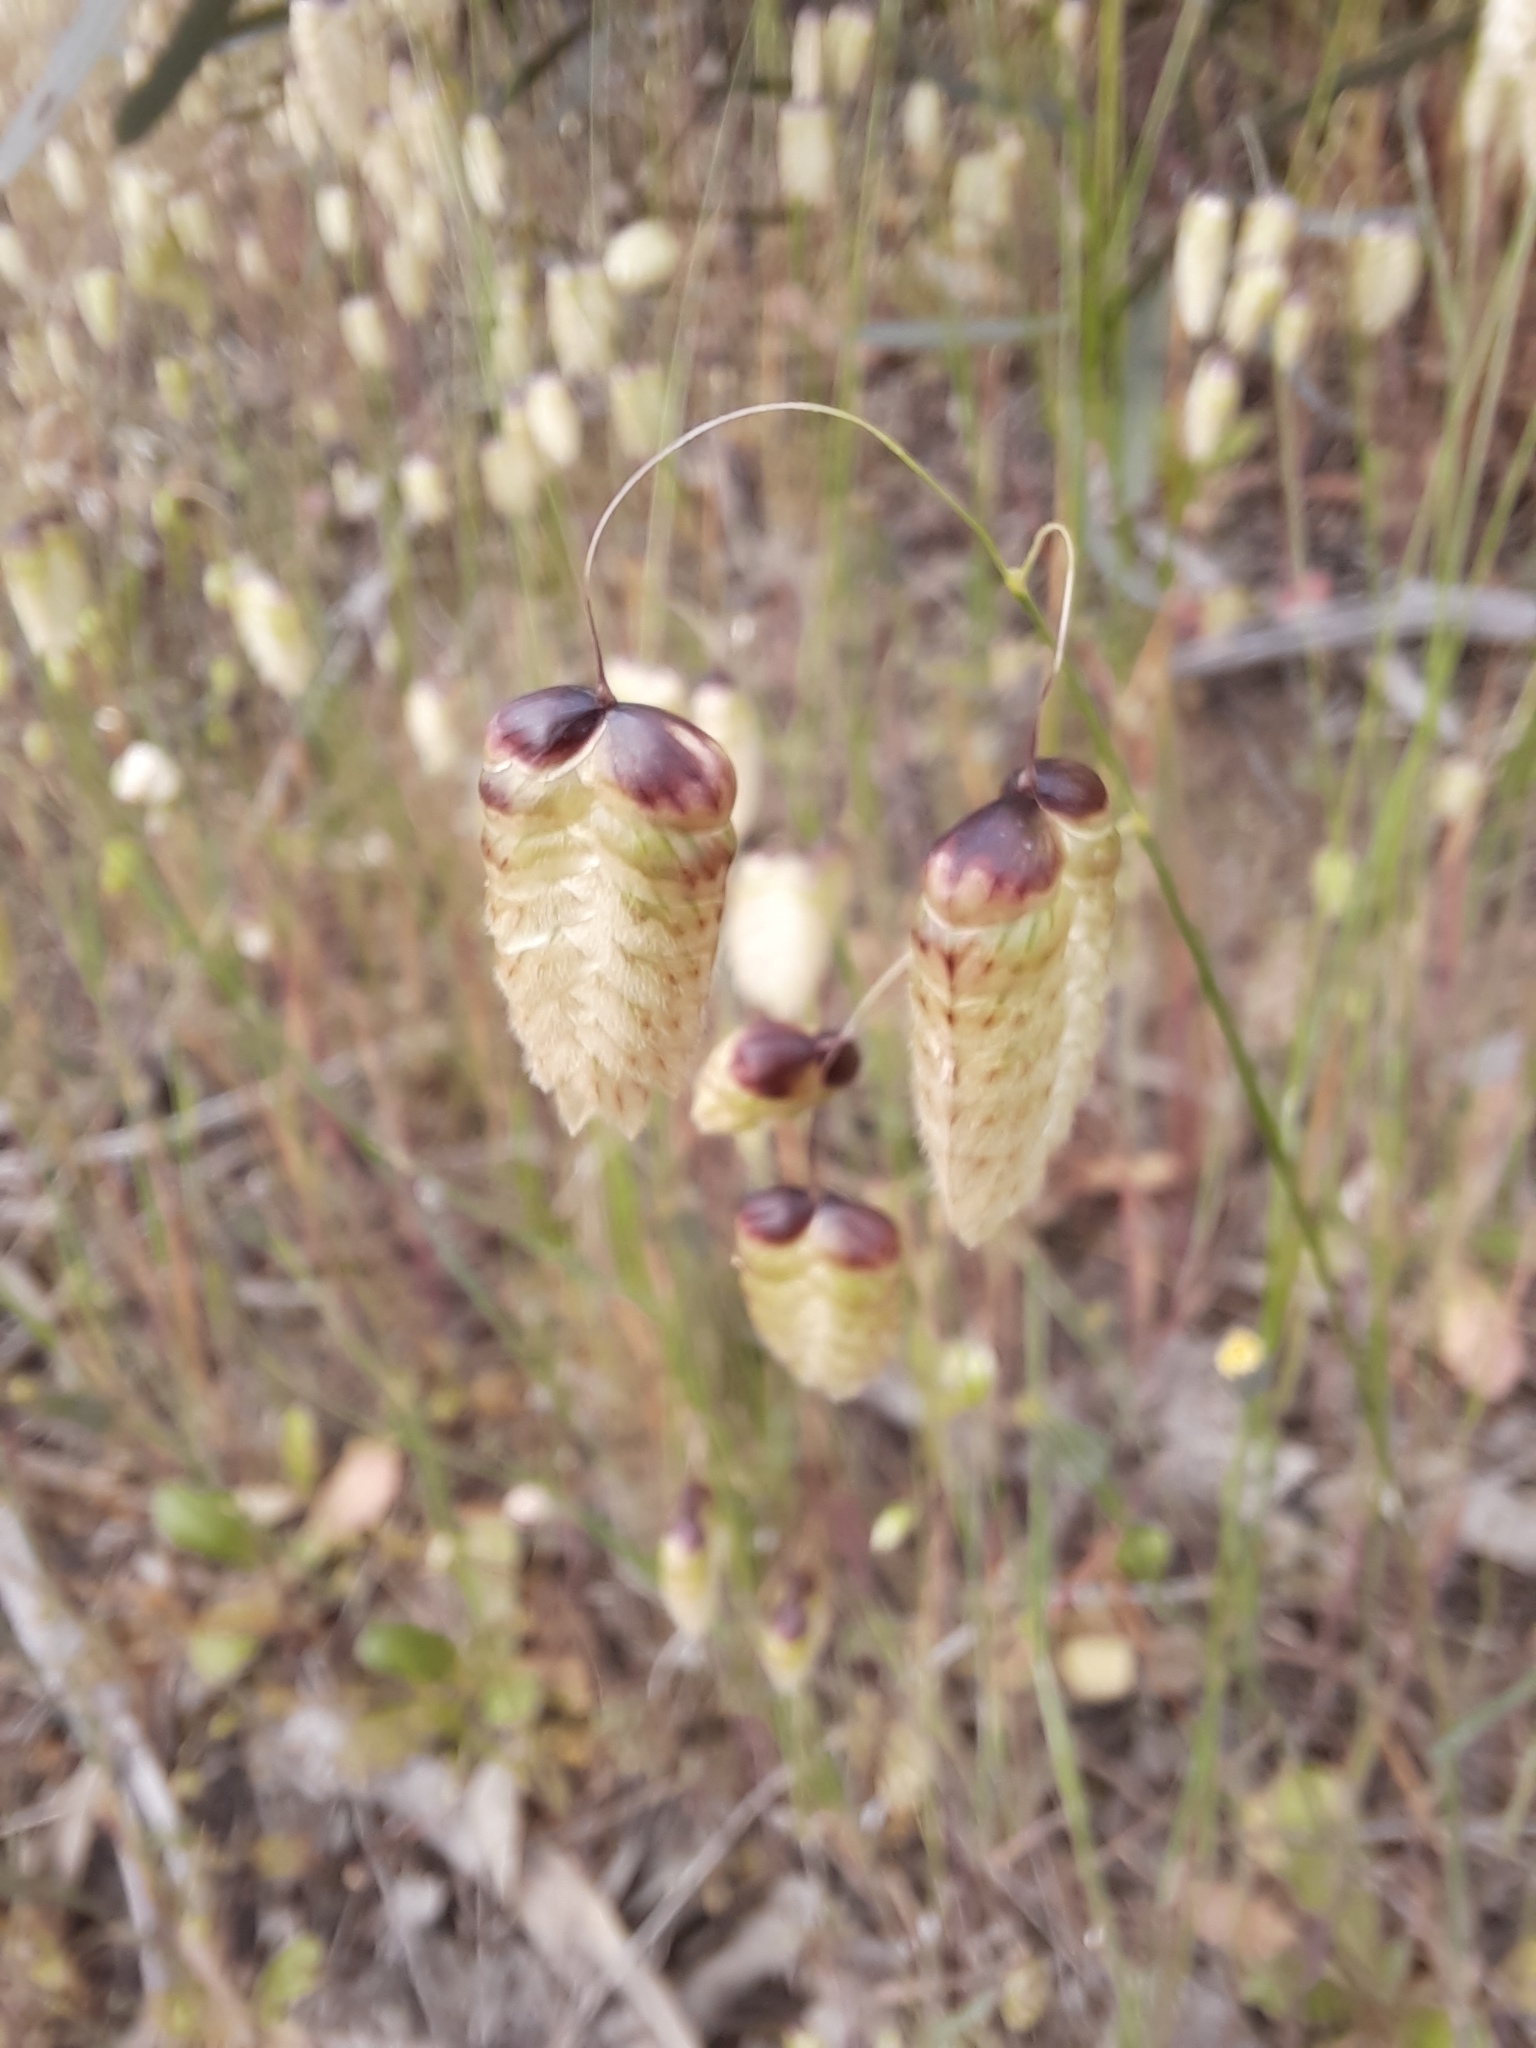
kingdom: Plantae
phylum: Tracheophyta
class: Liliopsida
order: Poales
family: Poaceae
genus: Briza
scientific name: Briza maxima
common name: Big quakinggrass
